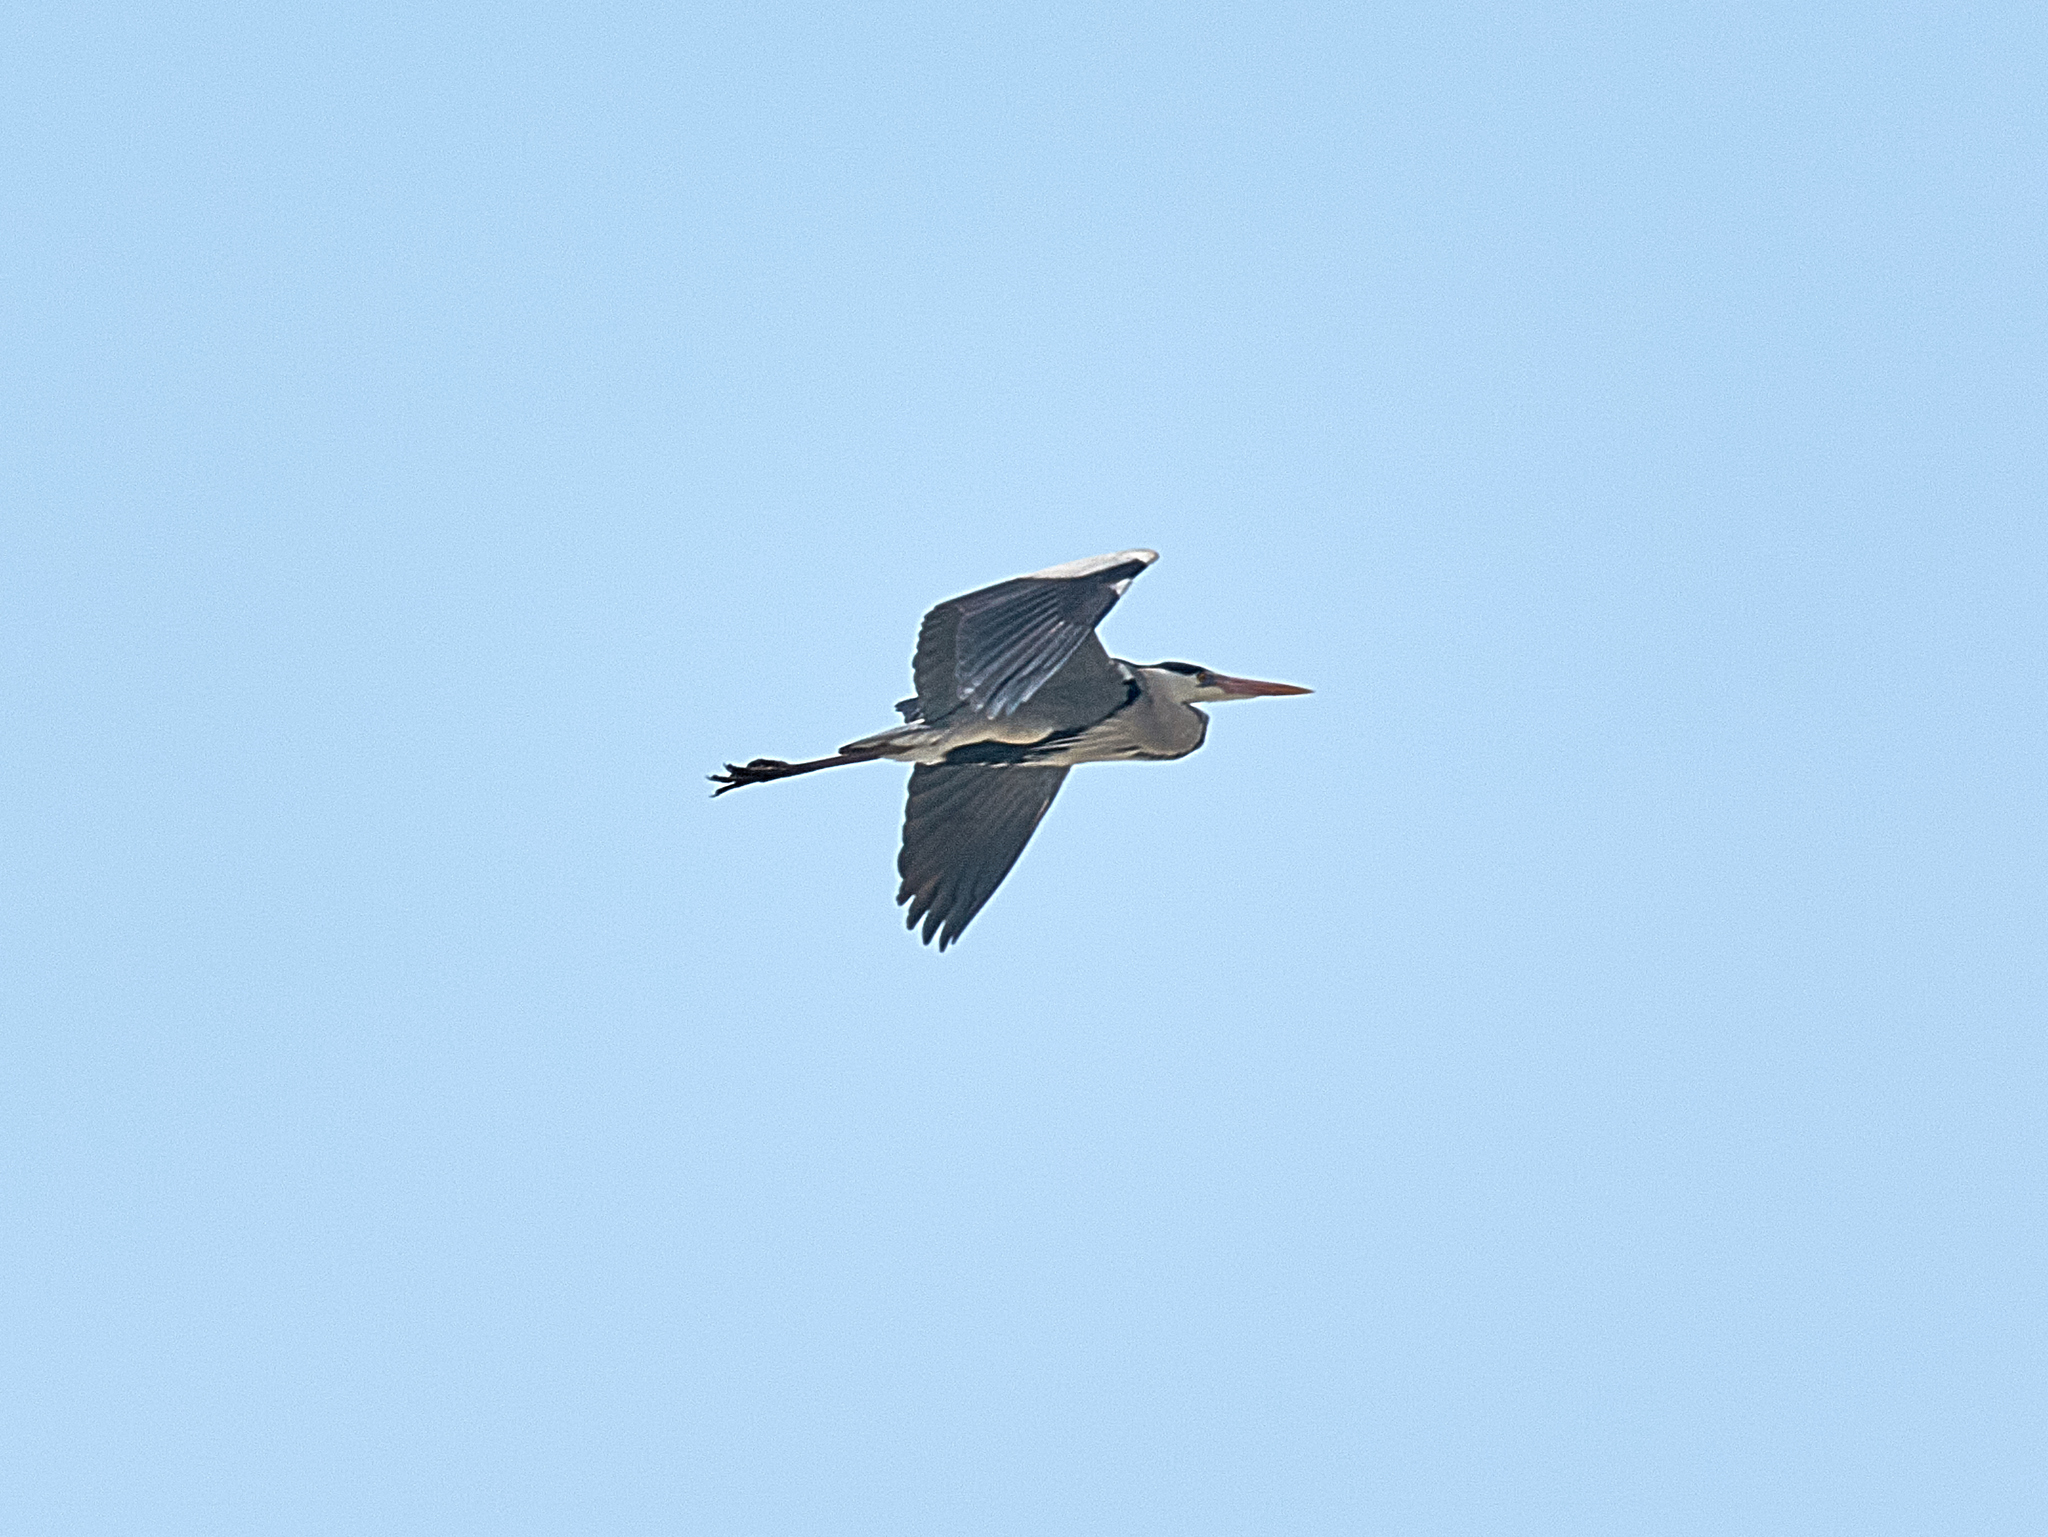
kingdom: Animalia
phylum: Chordata
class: Aves
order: Pelecaniformes
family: Ardeidae
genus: Ardea
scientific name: Ardea cinerea
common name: Grey heron
